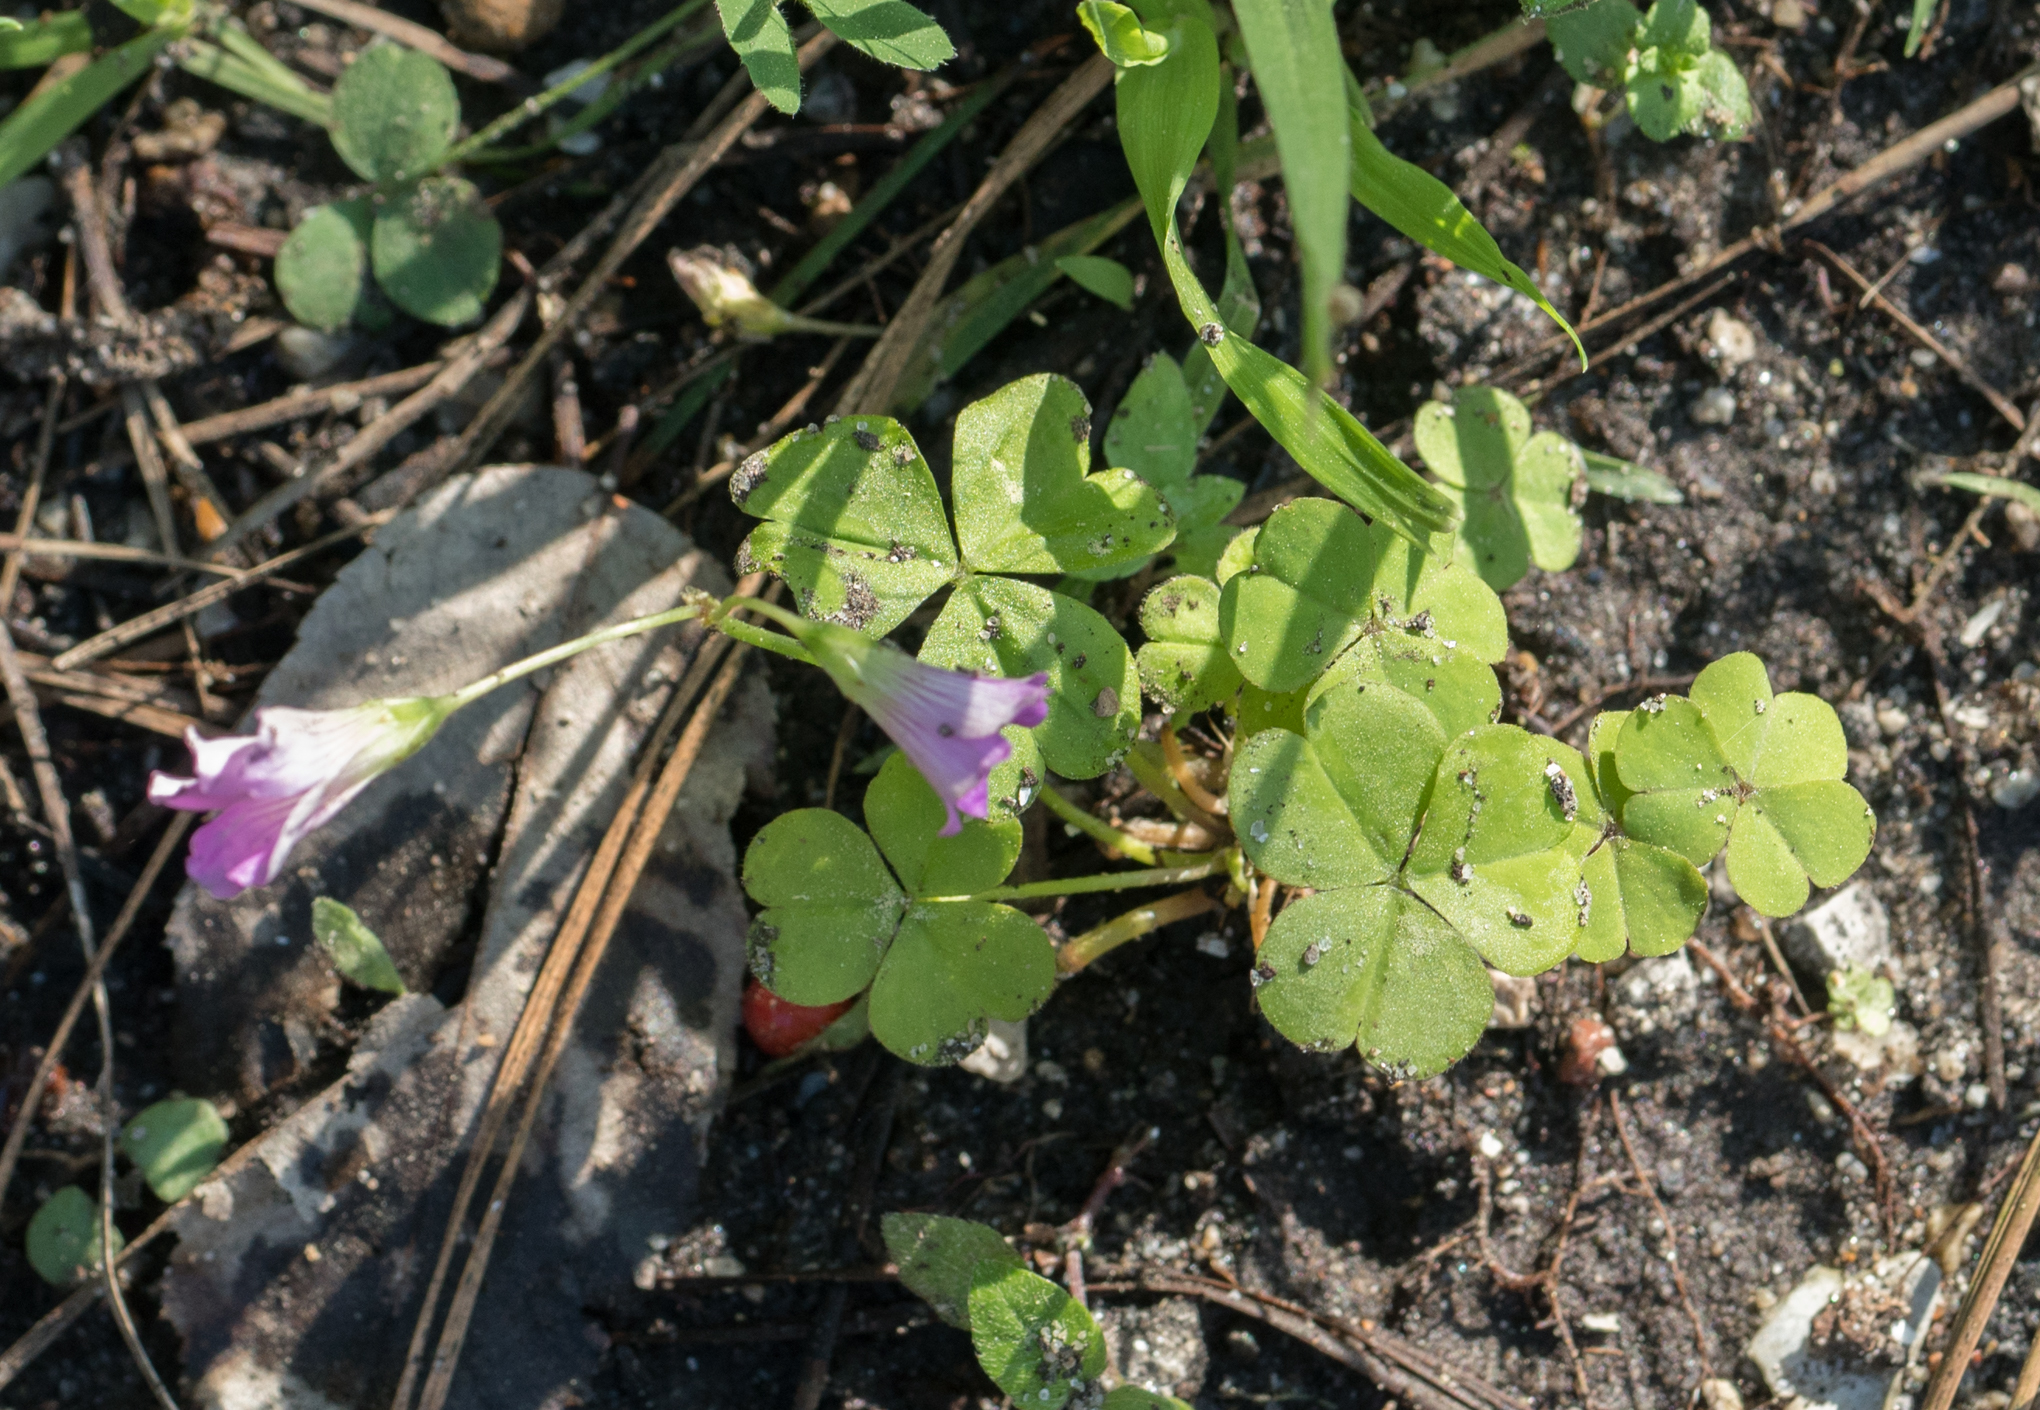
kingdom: Plantae
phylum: Tracheophyta
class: Magnoliopsida
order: Oxalidales
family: Oxalidaceae
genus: Oxalis
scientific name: Oxalis debilis
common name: Large-flowered pink-sorrel
